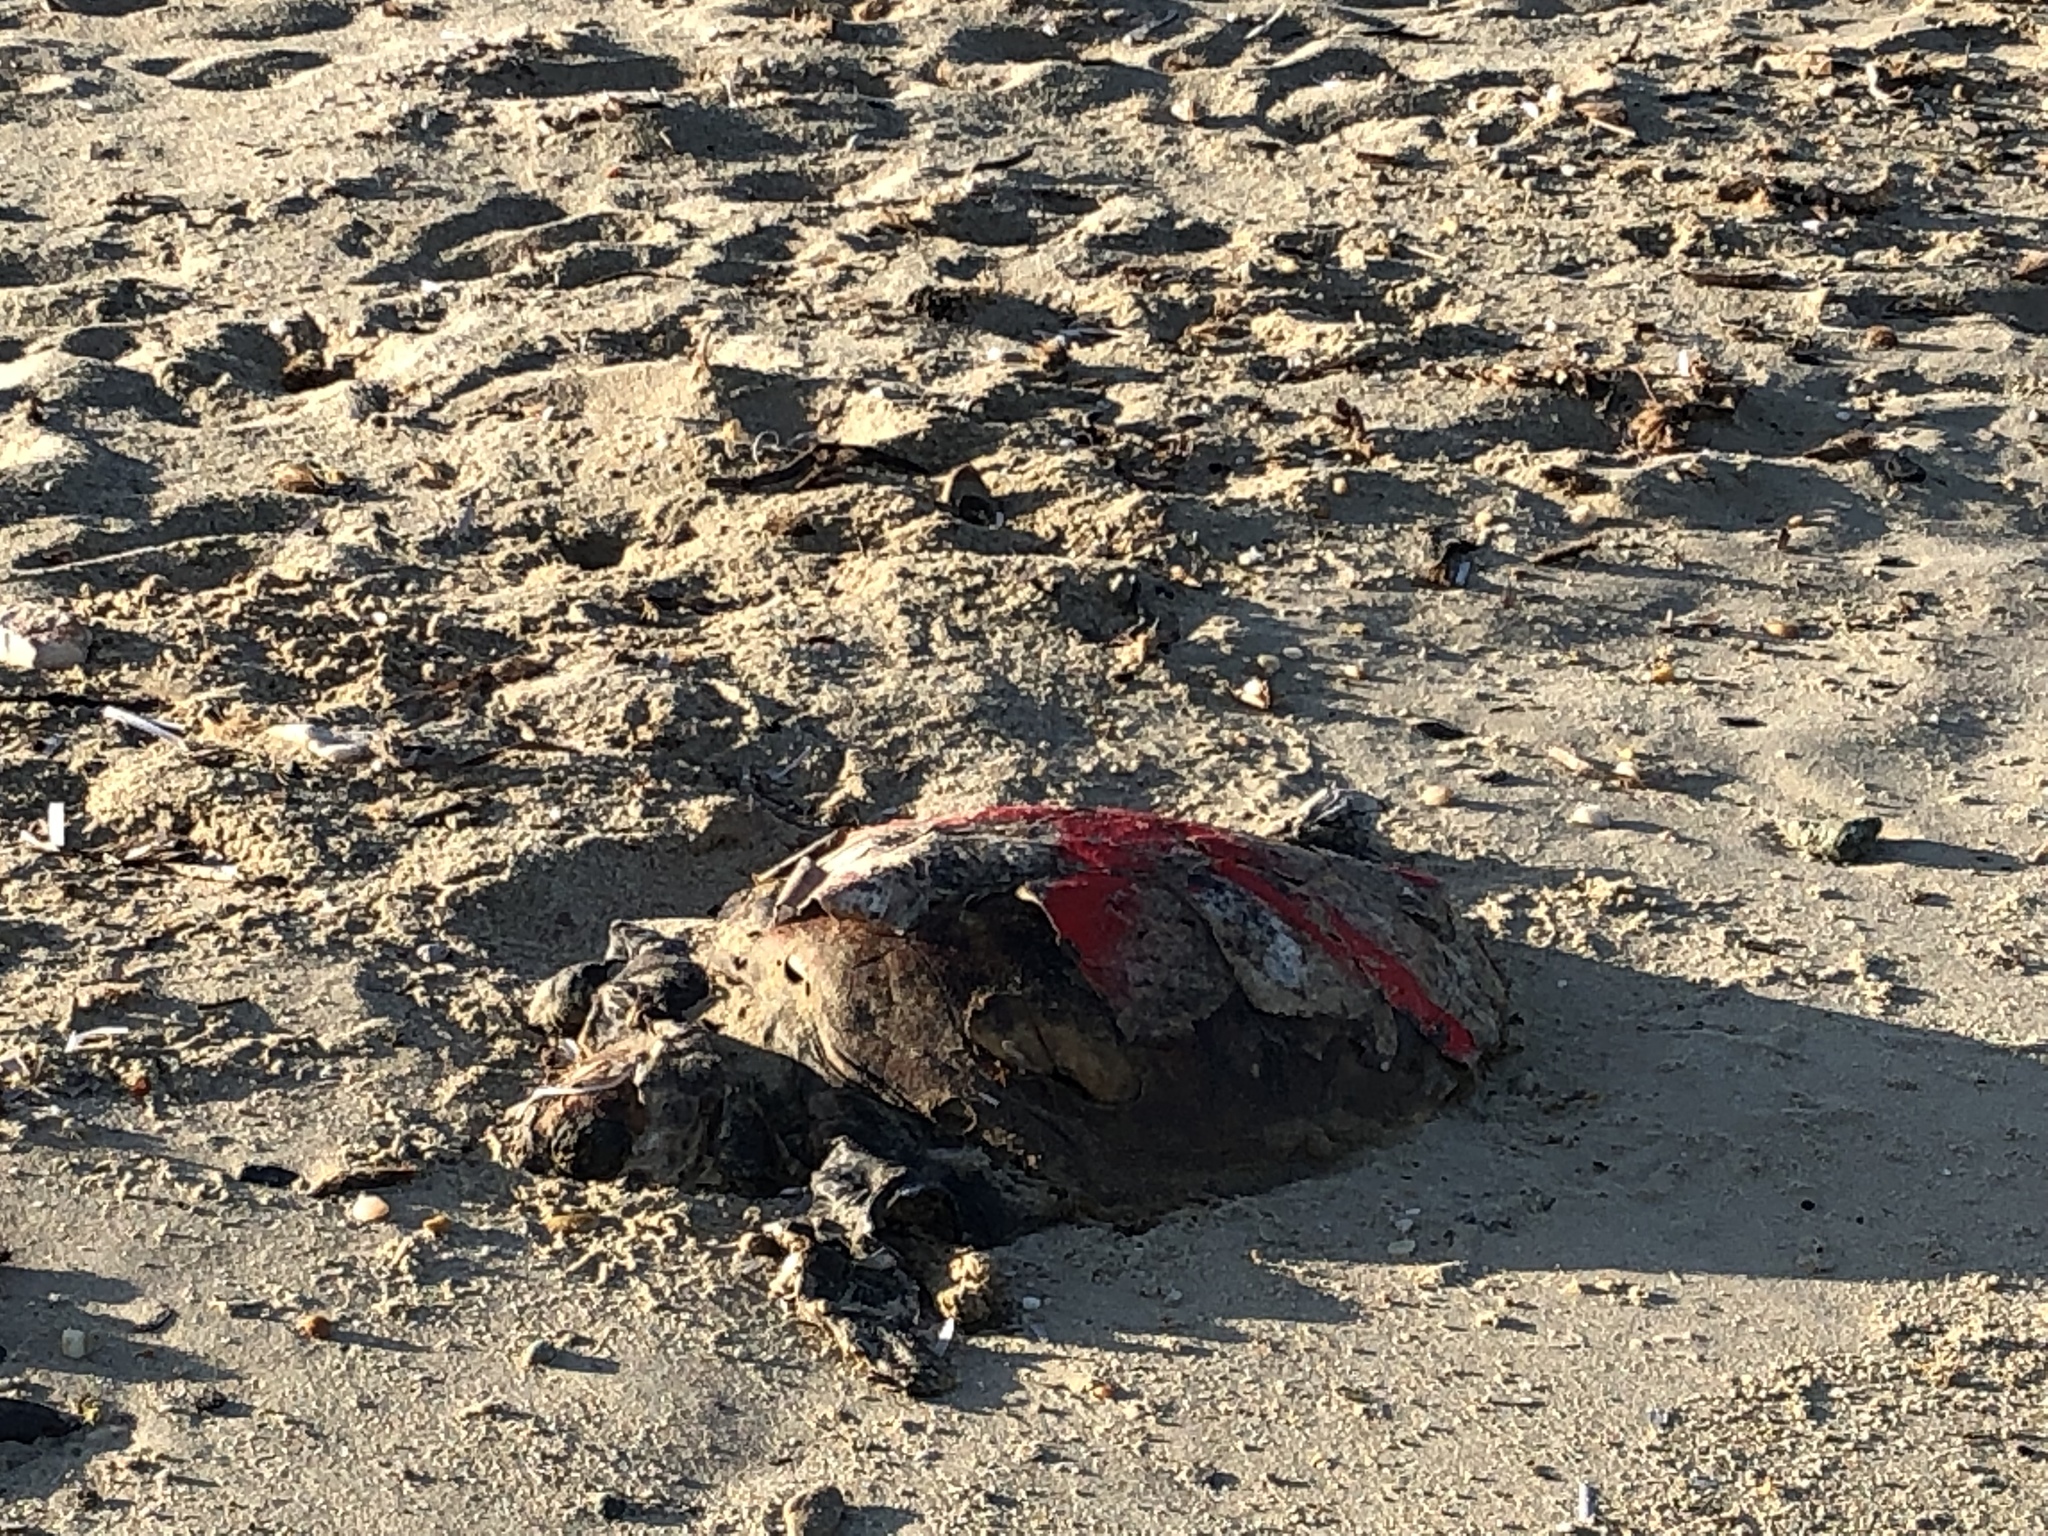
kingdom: Animalia
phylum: Chordata
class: Testudines
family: Cheloniidae
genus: Caretta
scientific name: Caretta caretta
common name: Loggerhead sea turtle
